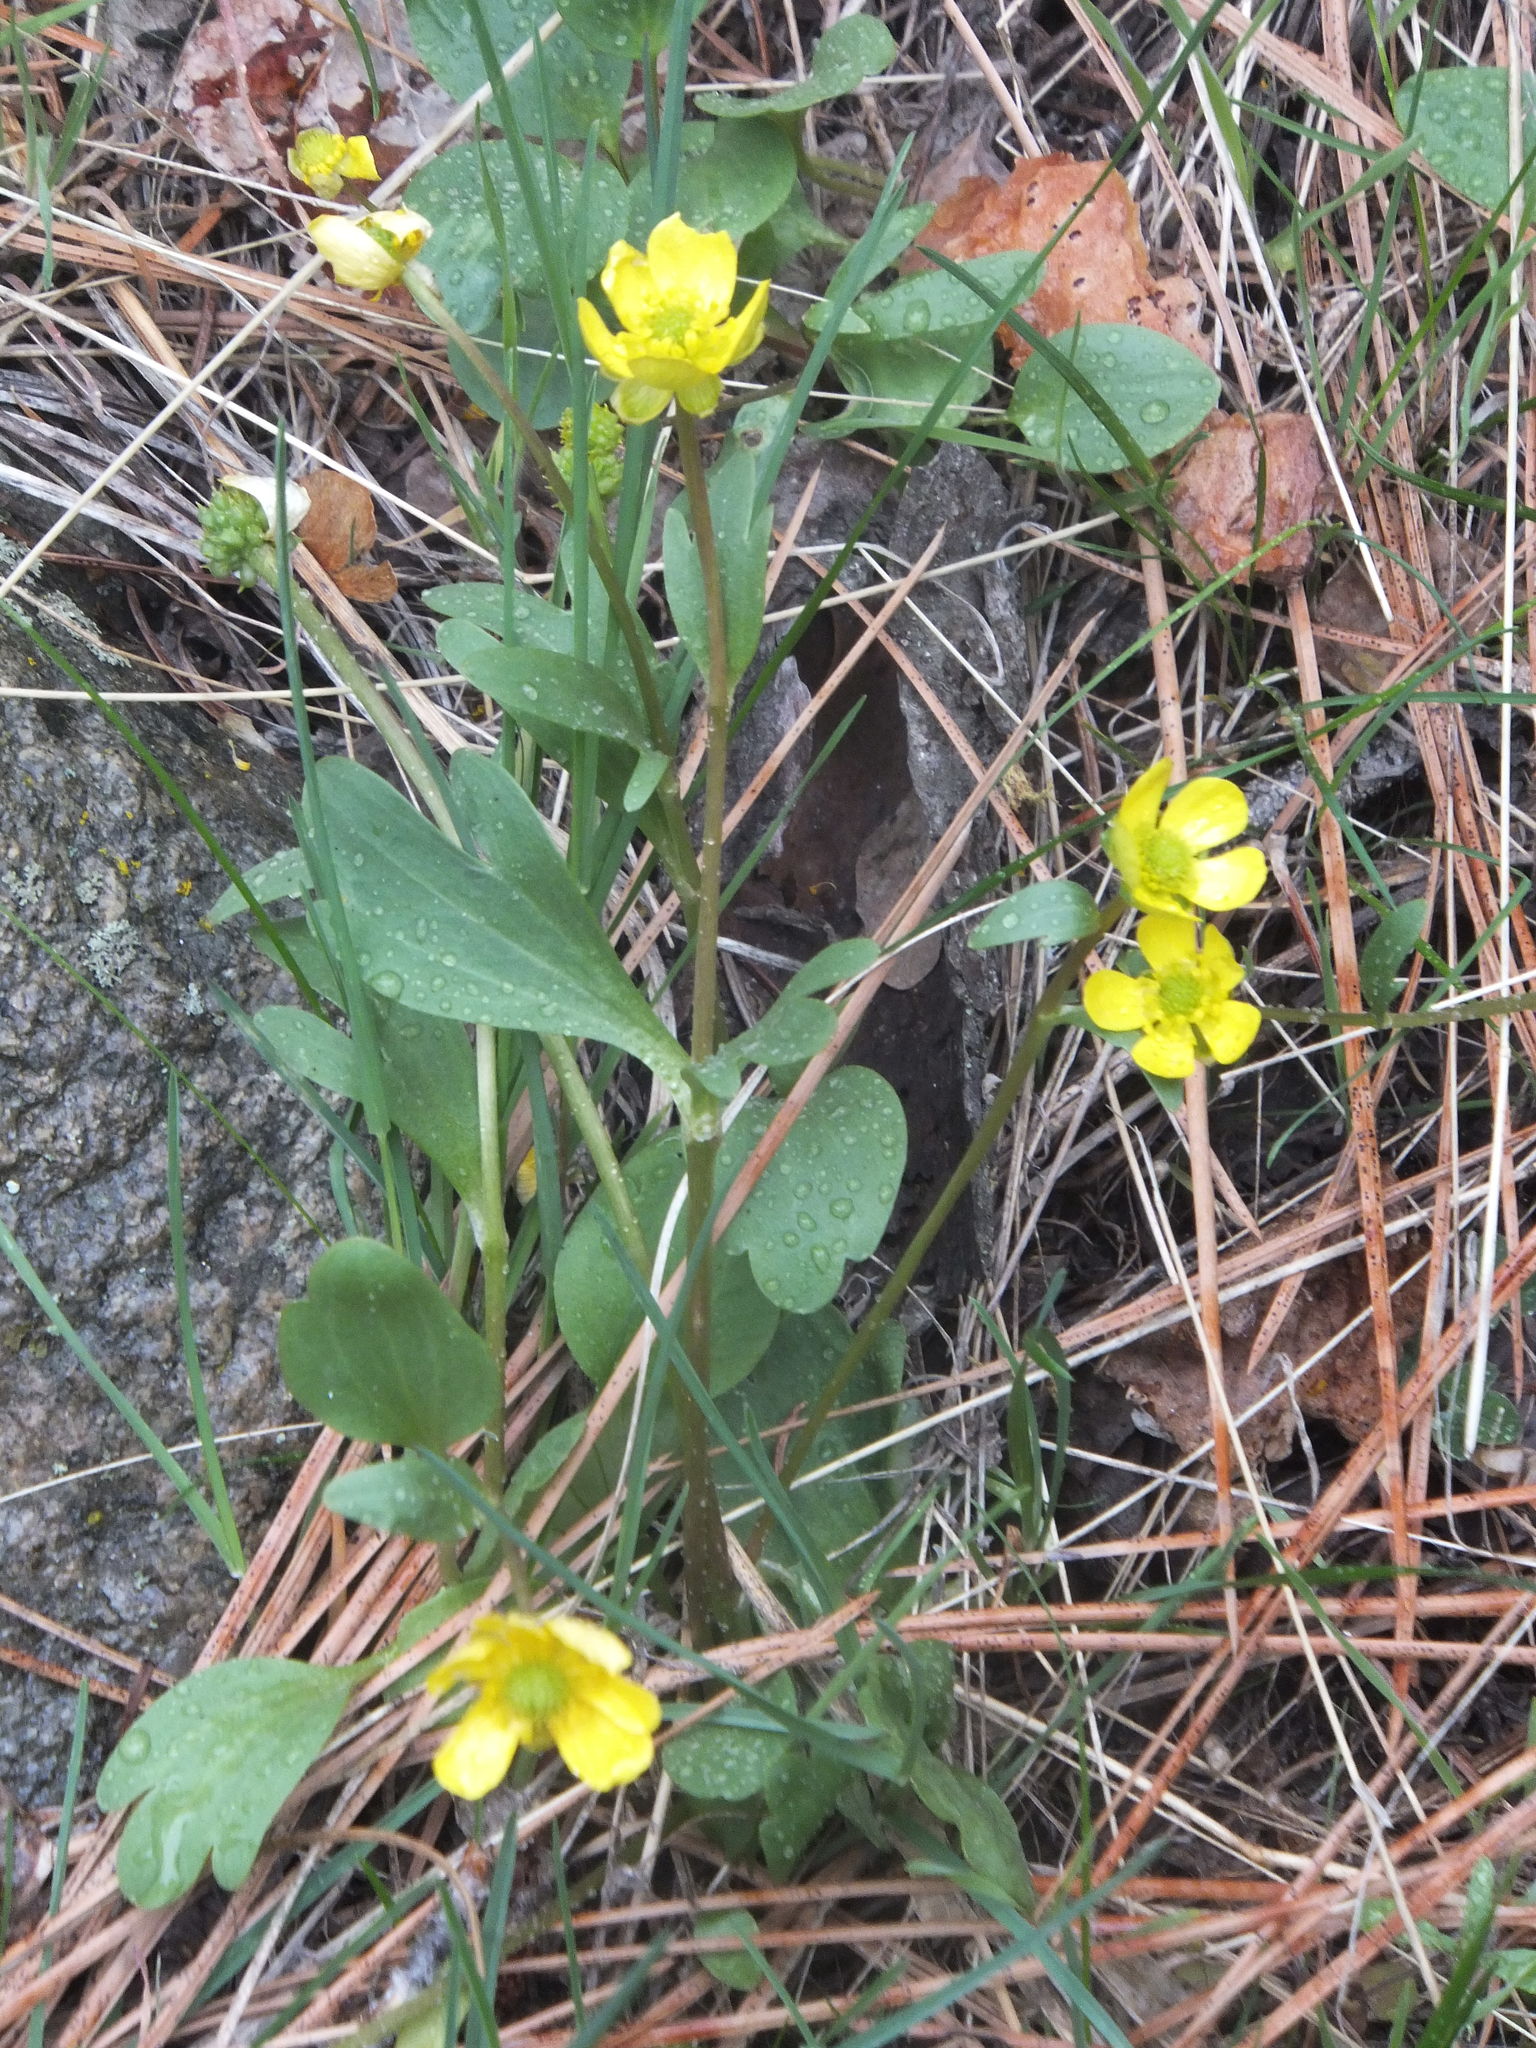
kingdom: Plantae
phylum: Tracheophyta
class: Magnoliopsida
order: Ranunculales
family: Ranunculaceae
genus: Ranunculus
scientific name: Ranunculus glaberrimus
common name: Sagebrush buttercup
